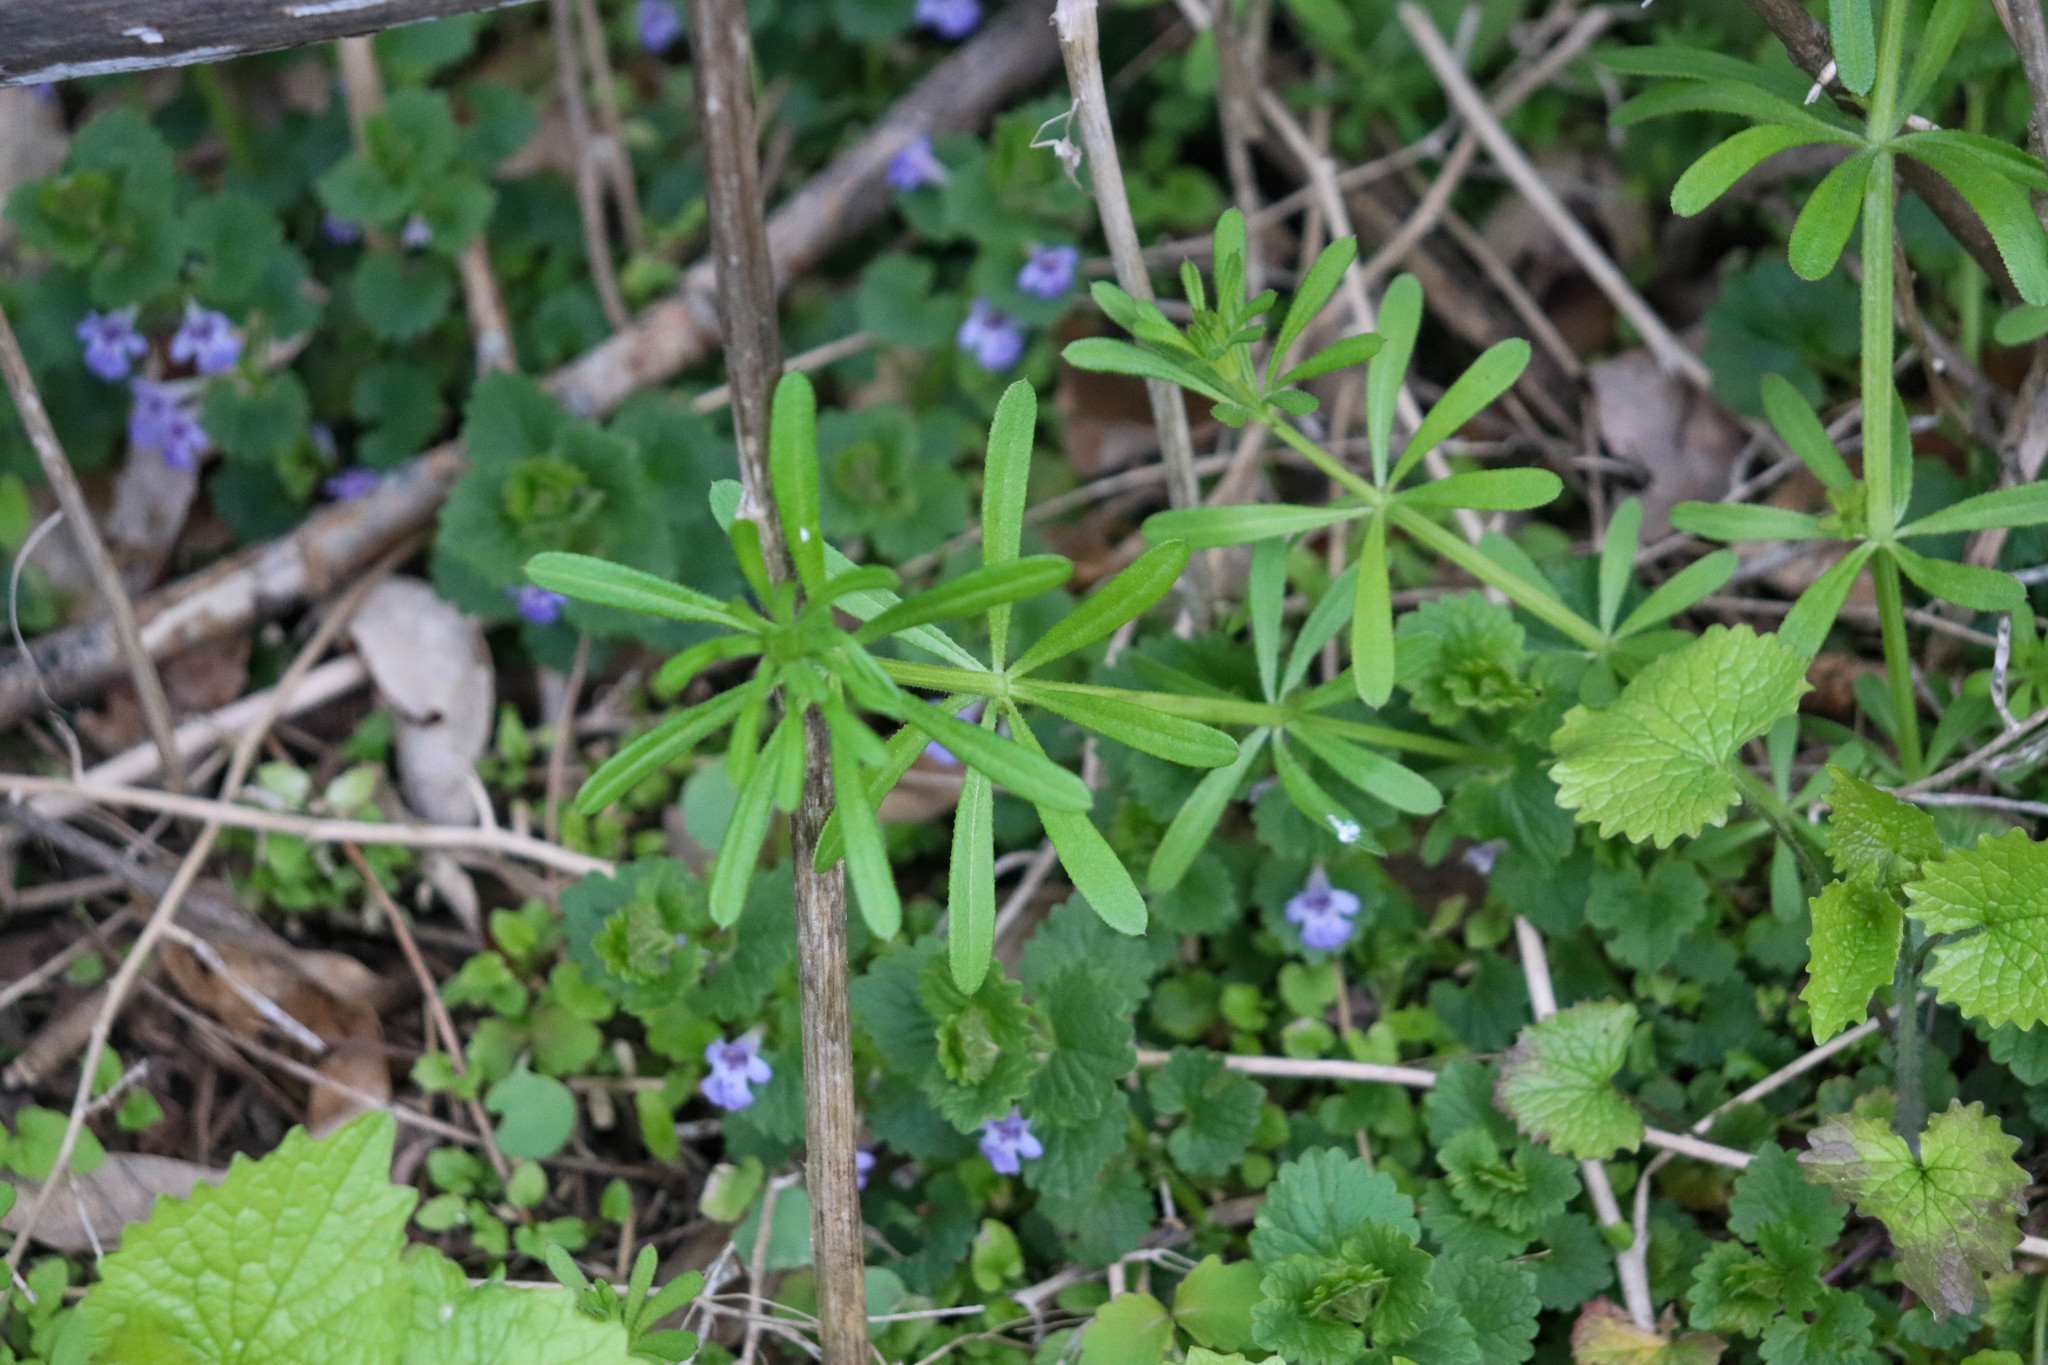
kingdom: Plantae
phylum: Tracheophyta
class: Magnoliopsida
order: Gentianales
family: Rubiaceae
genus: Galium
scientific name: Galium aparine
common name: Cleavers
